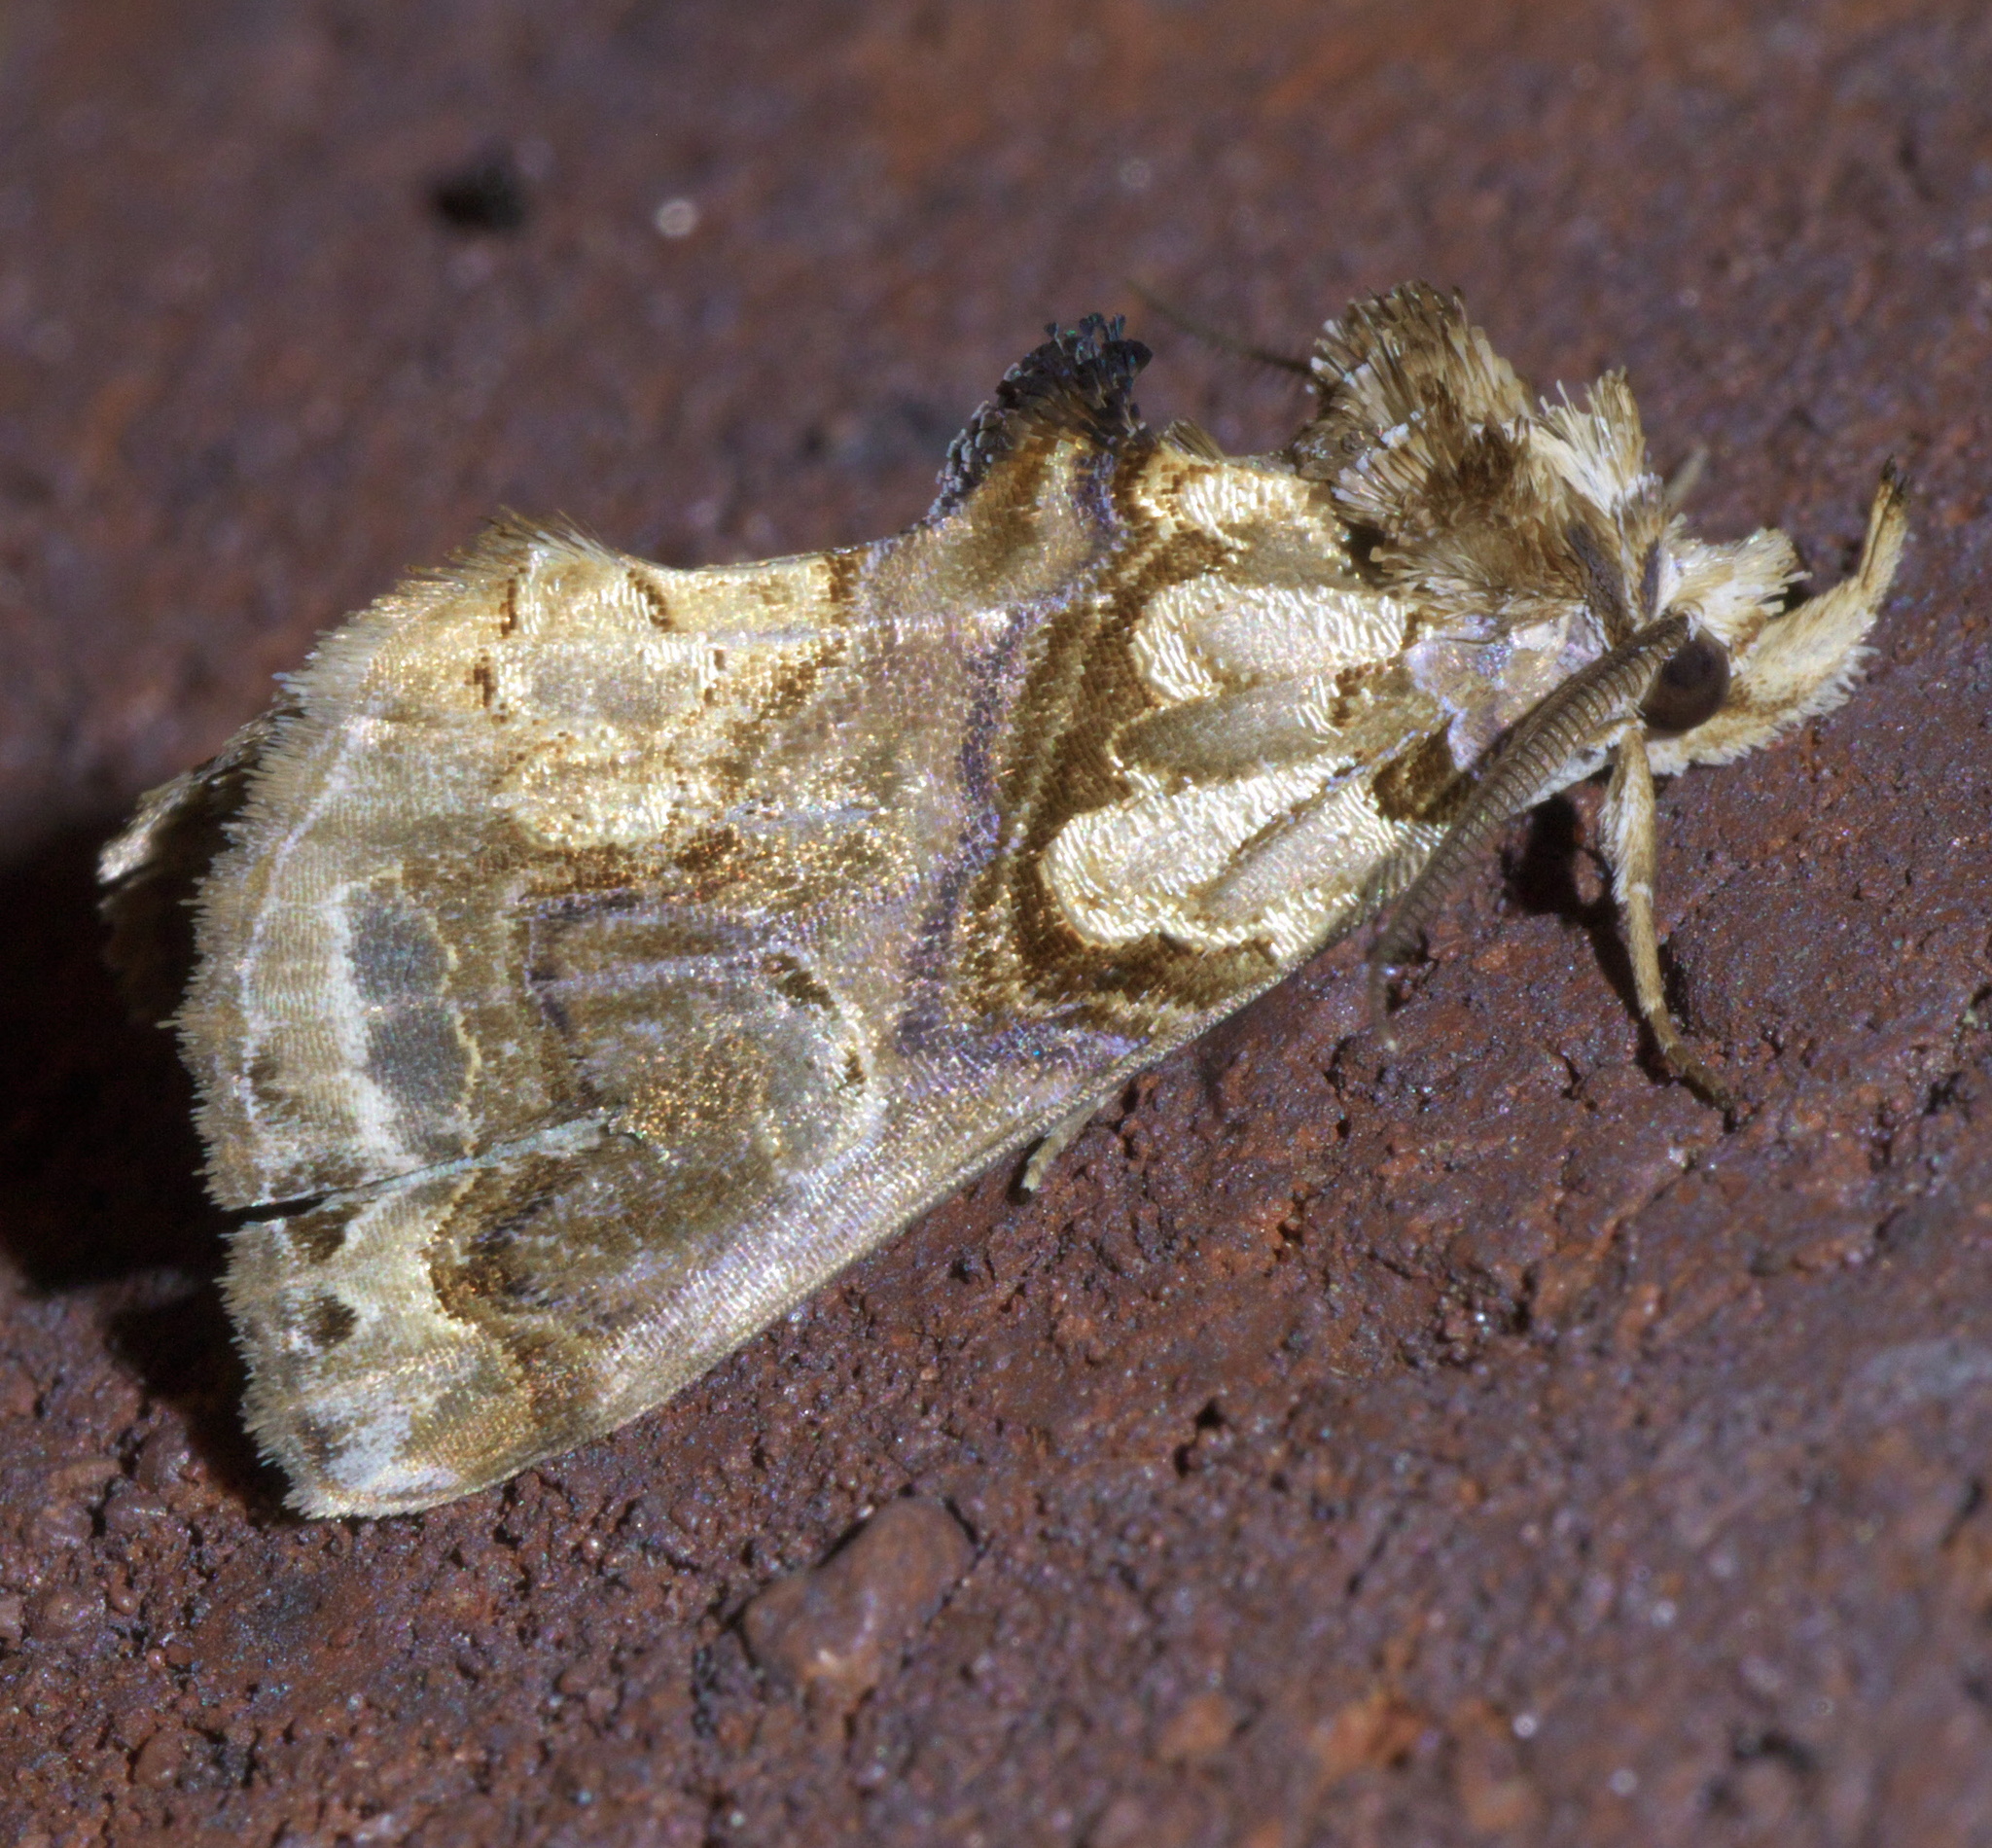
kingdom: Animalia
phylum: Arthropoda
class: Insecta
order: Lepidoptera
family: Erebidae
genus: Plusiodonta
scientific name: Plusiodonta compressipalpis
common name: Moonseed moth
